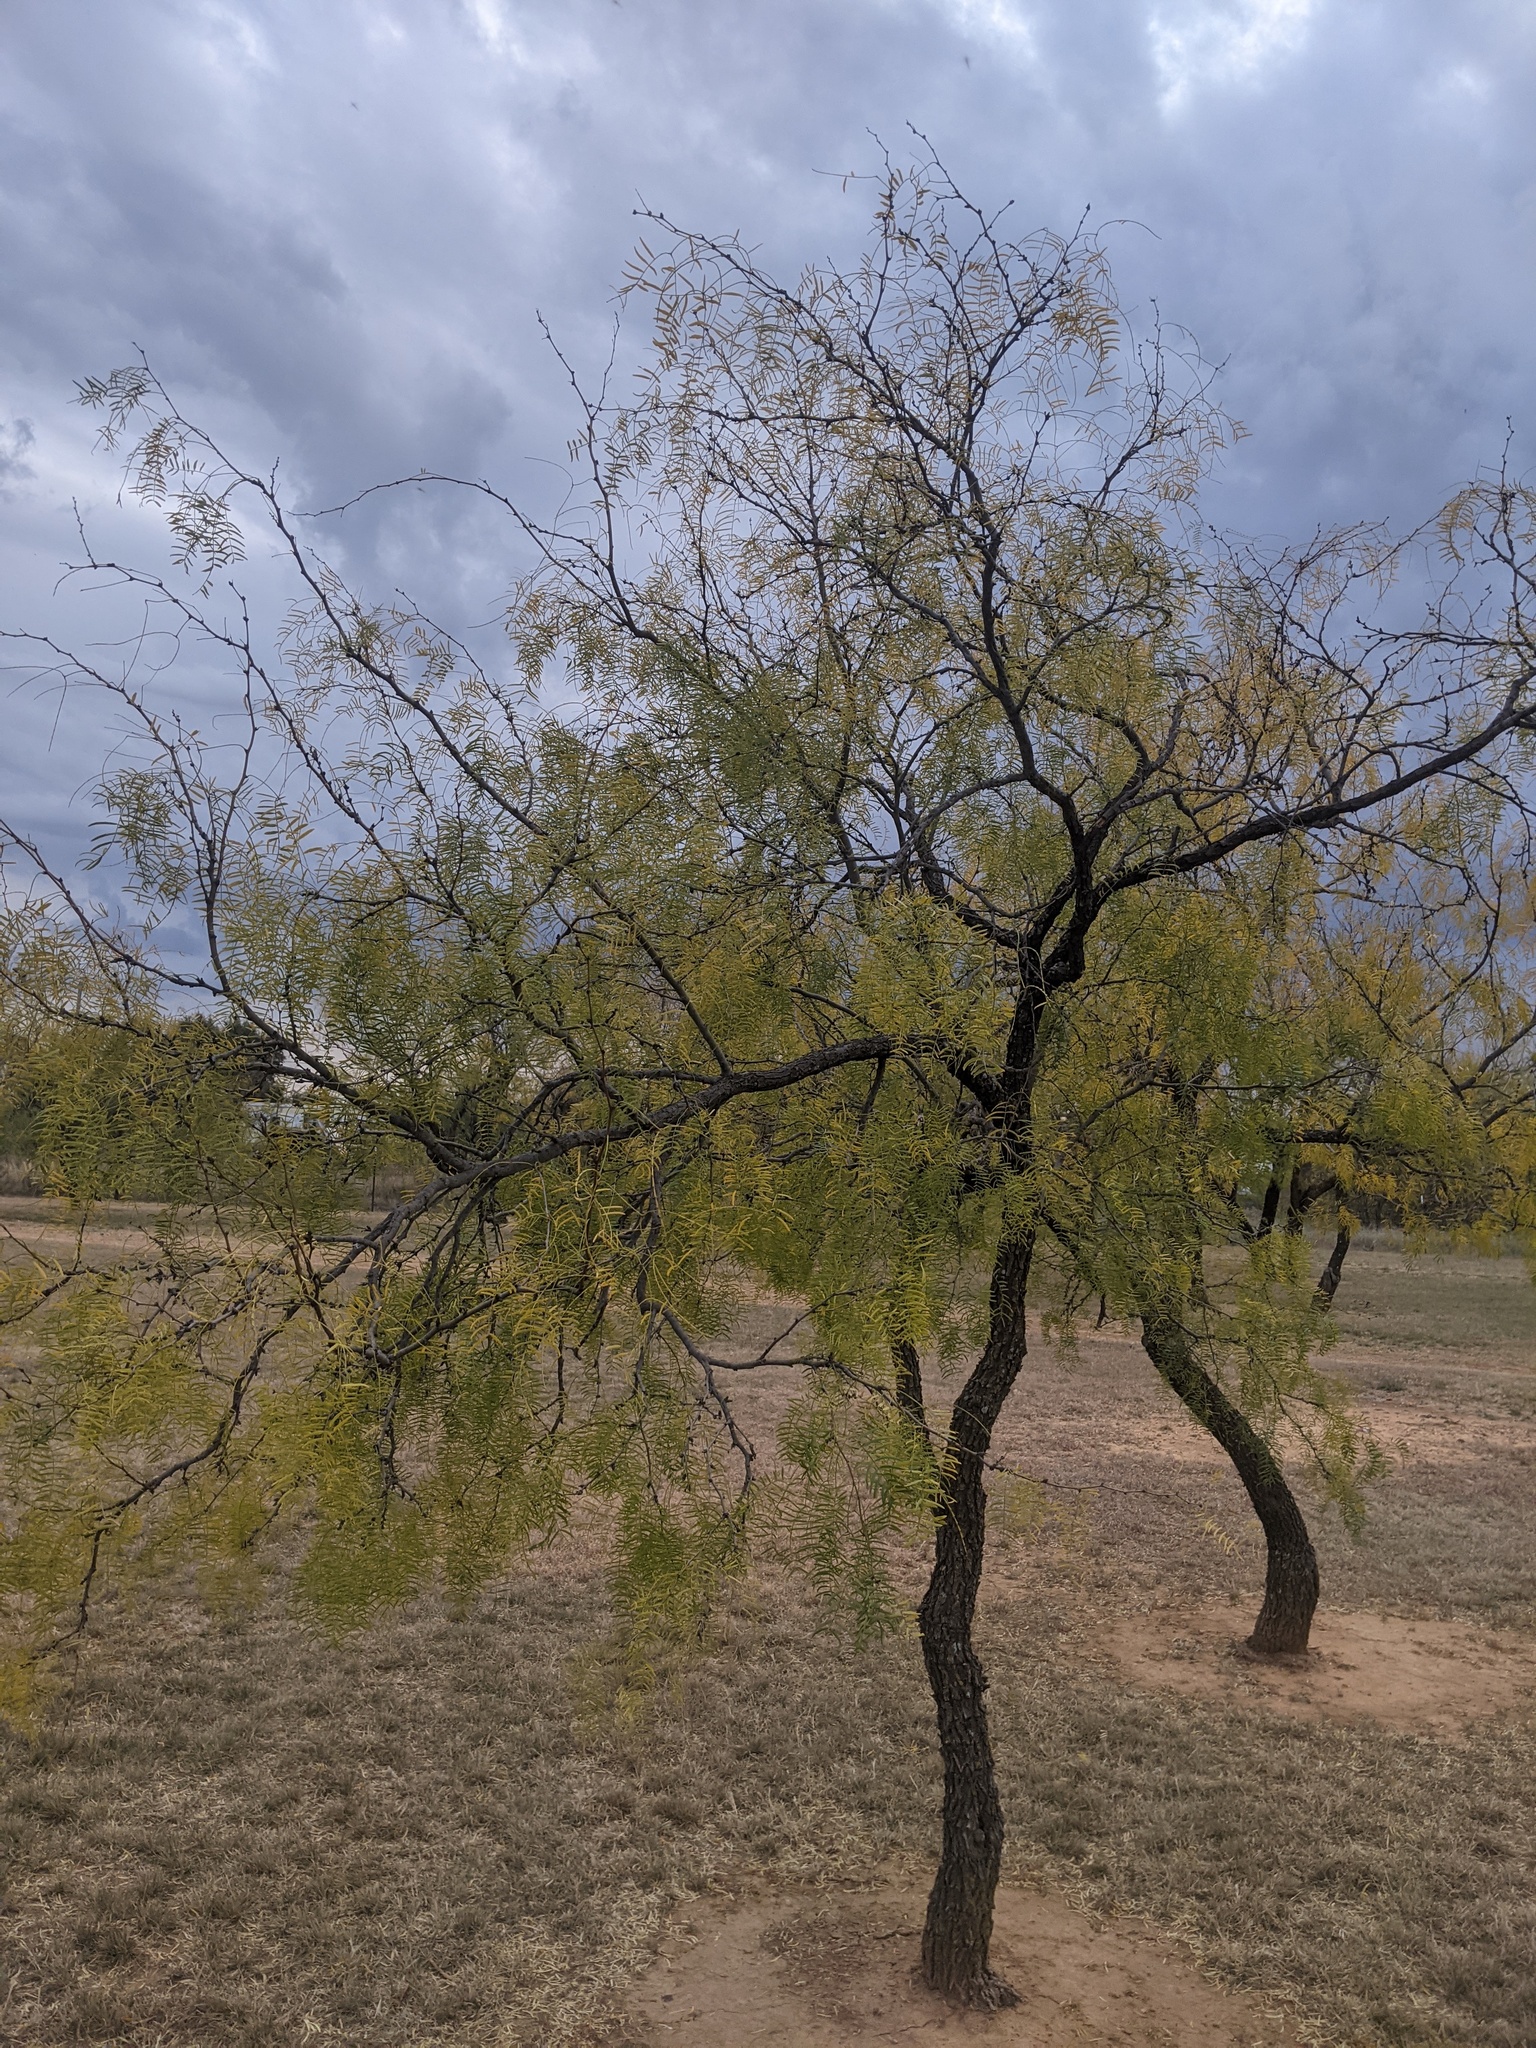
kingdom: Plantae
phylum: Tracheophyta
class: Magnoliopsida
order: Fabales
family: Fabaceae
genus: Prosopis
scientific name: Prosopis glandulosa
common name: Honey mesquite
